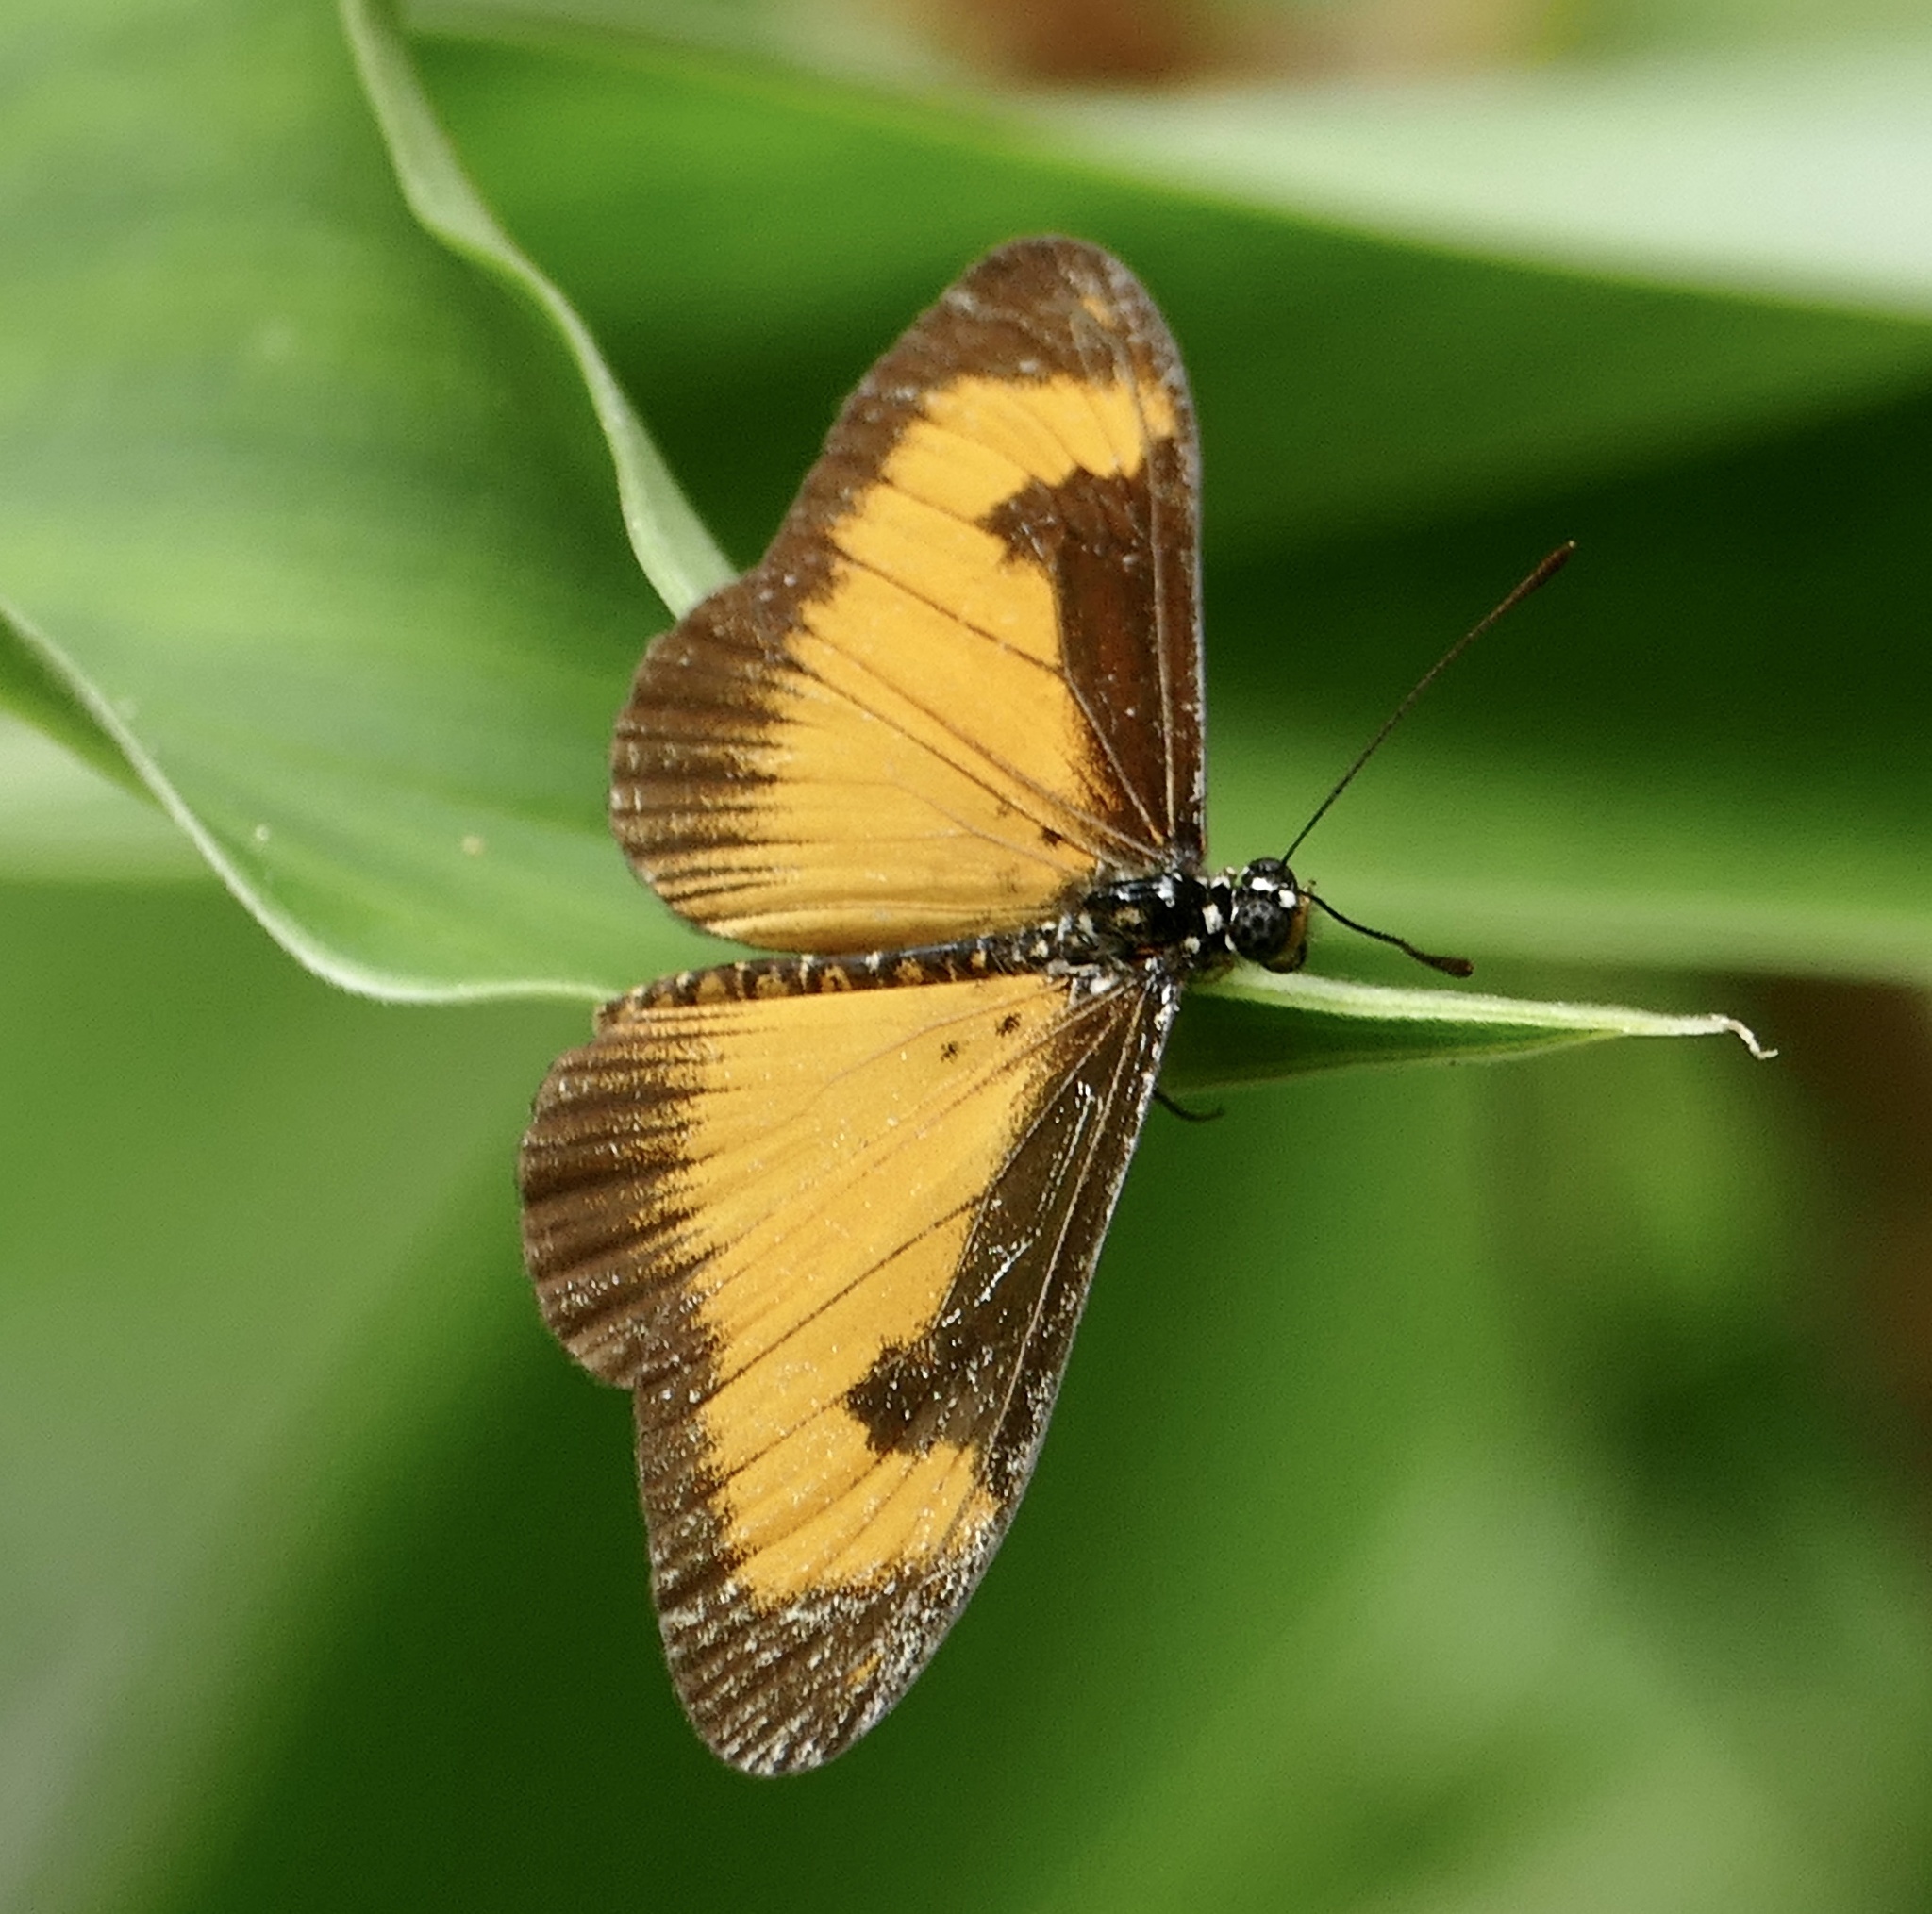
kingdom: Animalia
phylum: Arthropoda
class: Insecta
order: Lepidoptera
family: Nymphalidae
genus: Acraea
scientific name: Acraea Telchinia alciope
